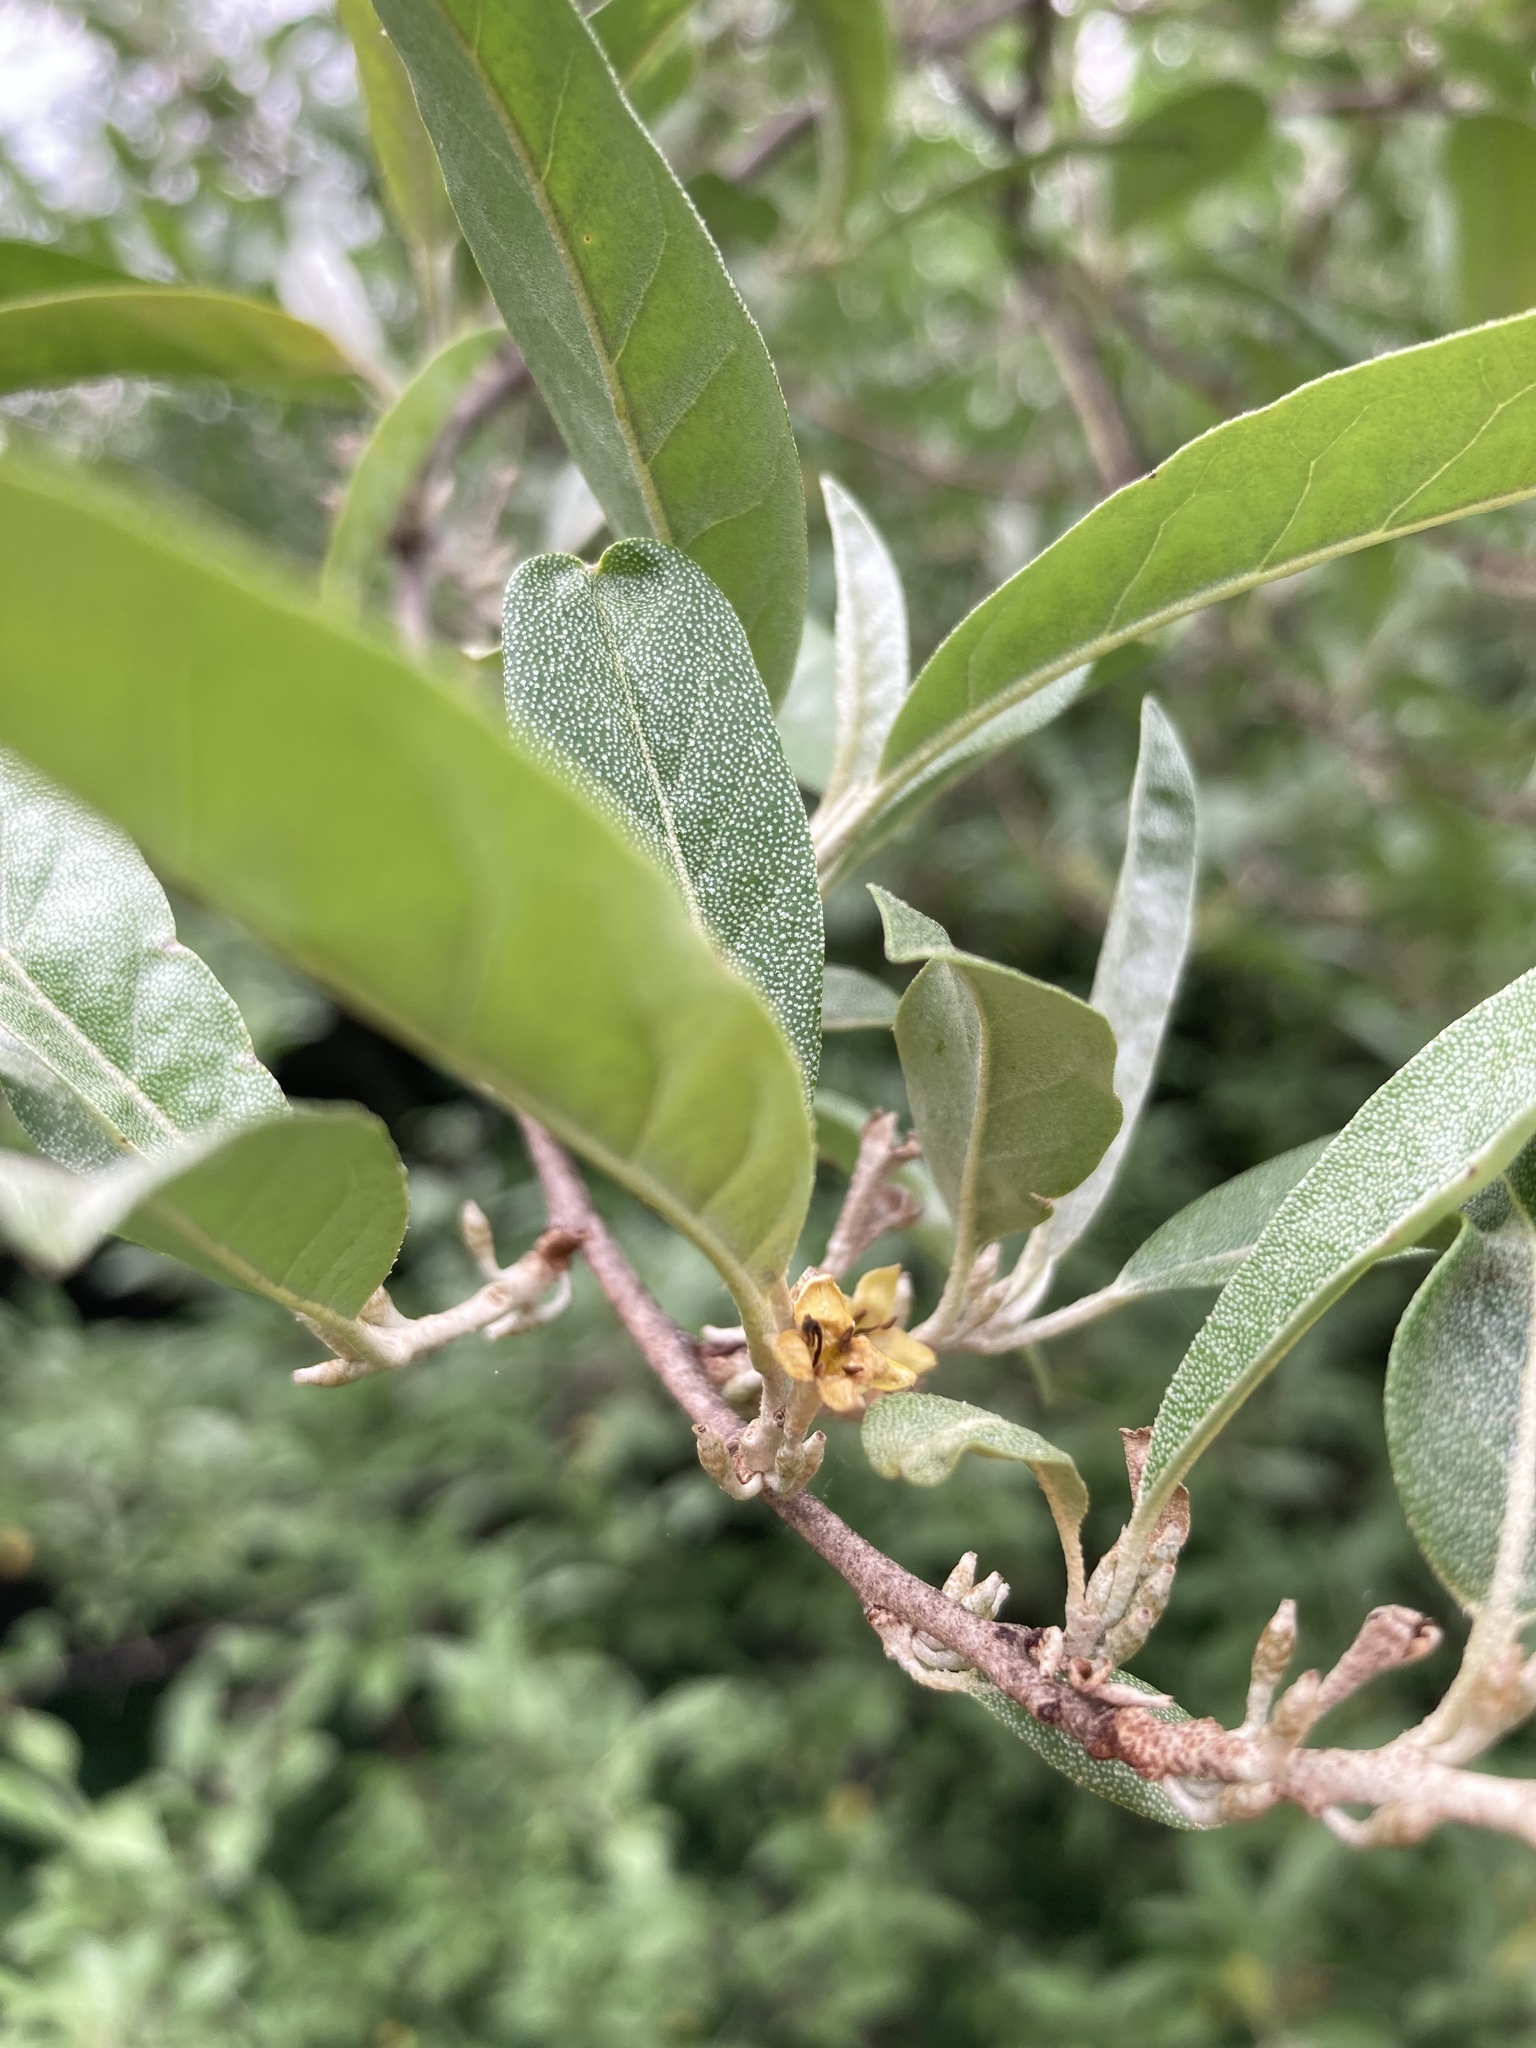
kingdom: Plantae
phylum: Tracheophyta
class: Magnoliopsida
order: Rosales
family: Elaeagnaceae
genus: Elaeagnus
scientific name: Elaeagnus umbellata
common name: Autumn olive
